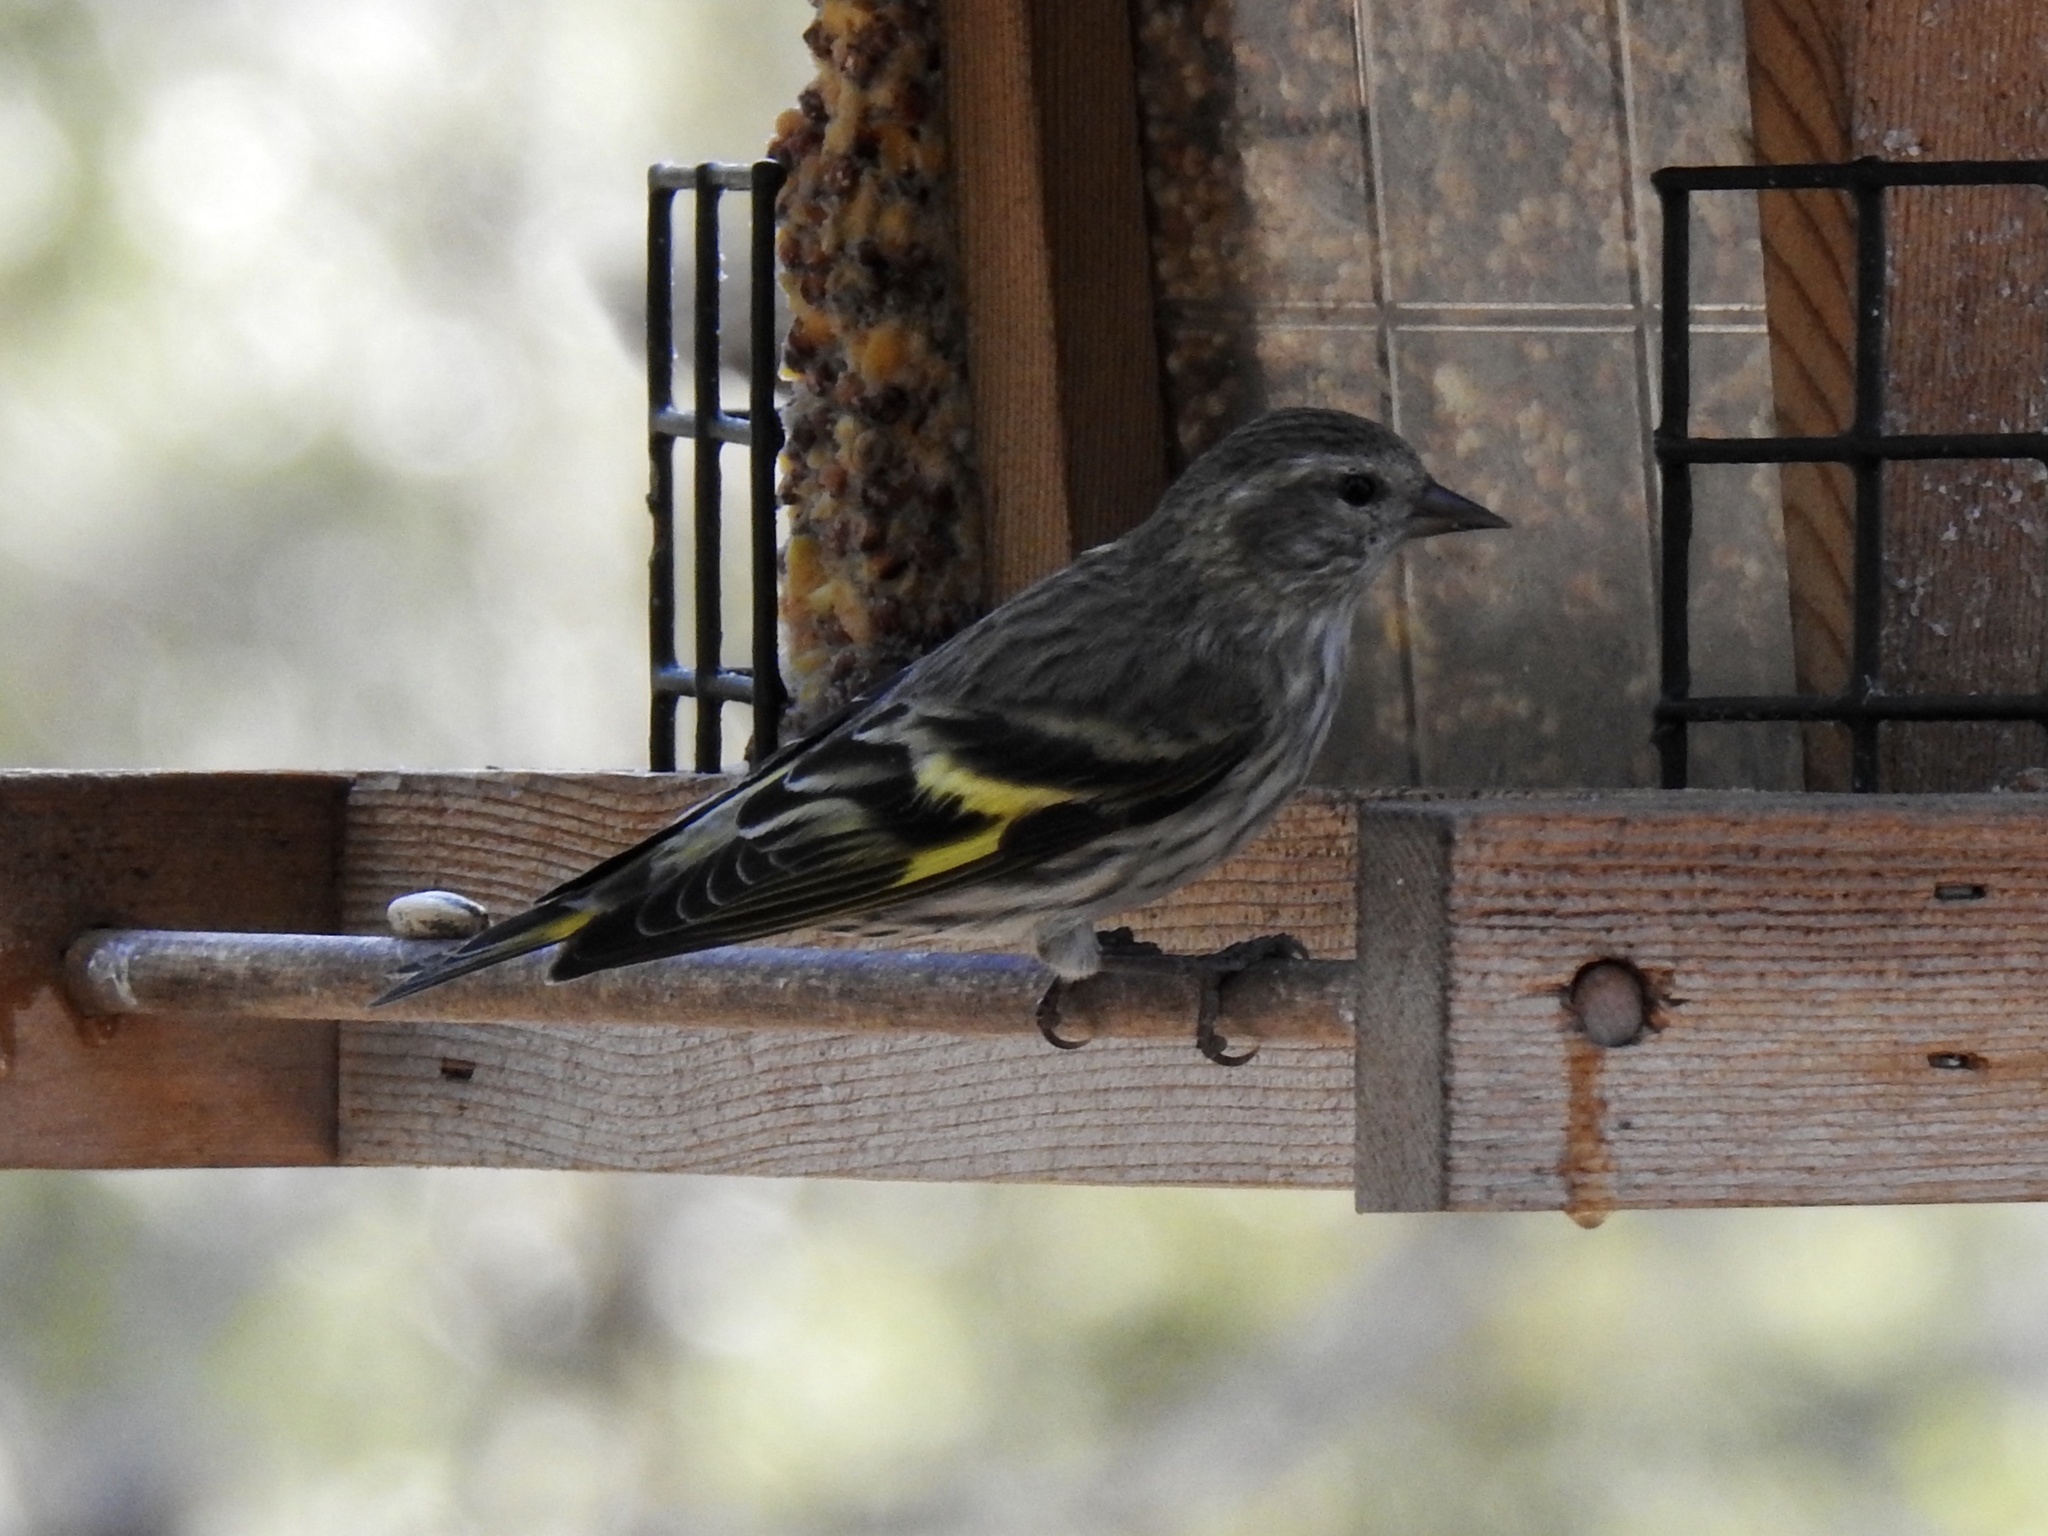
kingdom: Animalia
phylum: Chordata
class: Aves
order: Passeriformes
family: Fringillidae
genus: Spinus
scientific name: Spinus pinus
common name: Pine siskin
